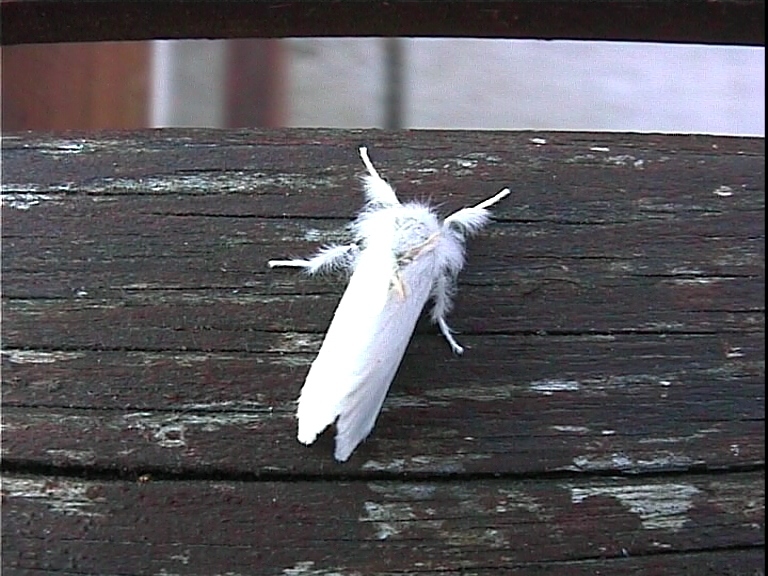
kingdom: Animalia
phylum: Arthropoda
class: Insecta
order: Lepidoptera
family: Erebidae
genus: Euproctis
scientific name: Euproctis chrysorrhoea
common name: Brown-tail
